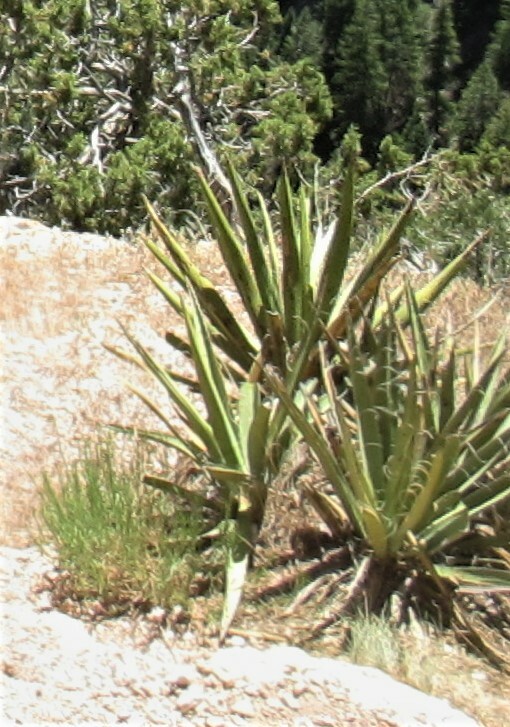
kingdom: Plantae
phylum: Tracheophyta
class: Liliopsida
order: Asparagales
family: Asparagaceae
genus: Yucca
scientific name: Yucca baccata
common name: Banana yucca
